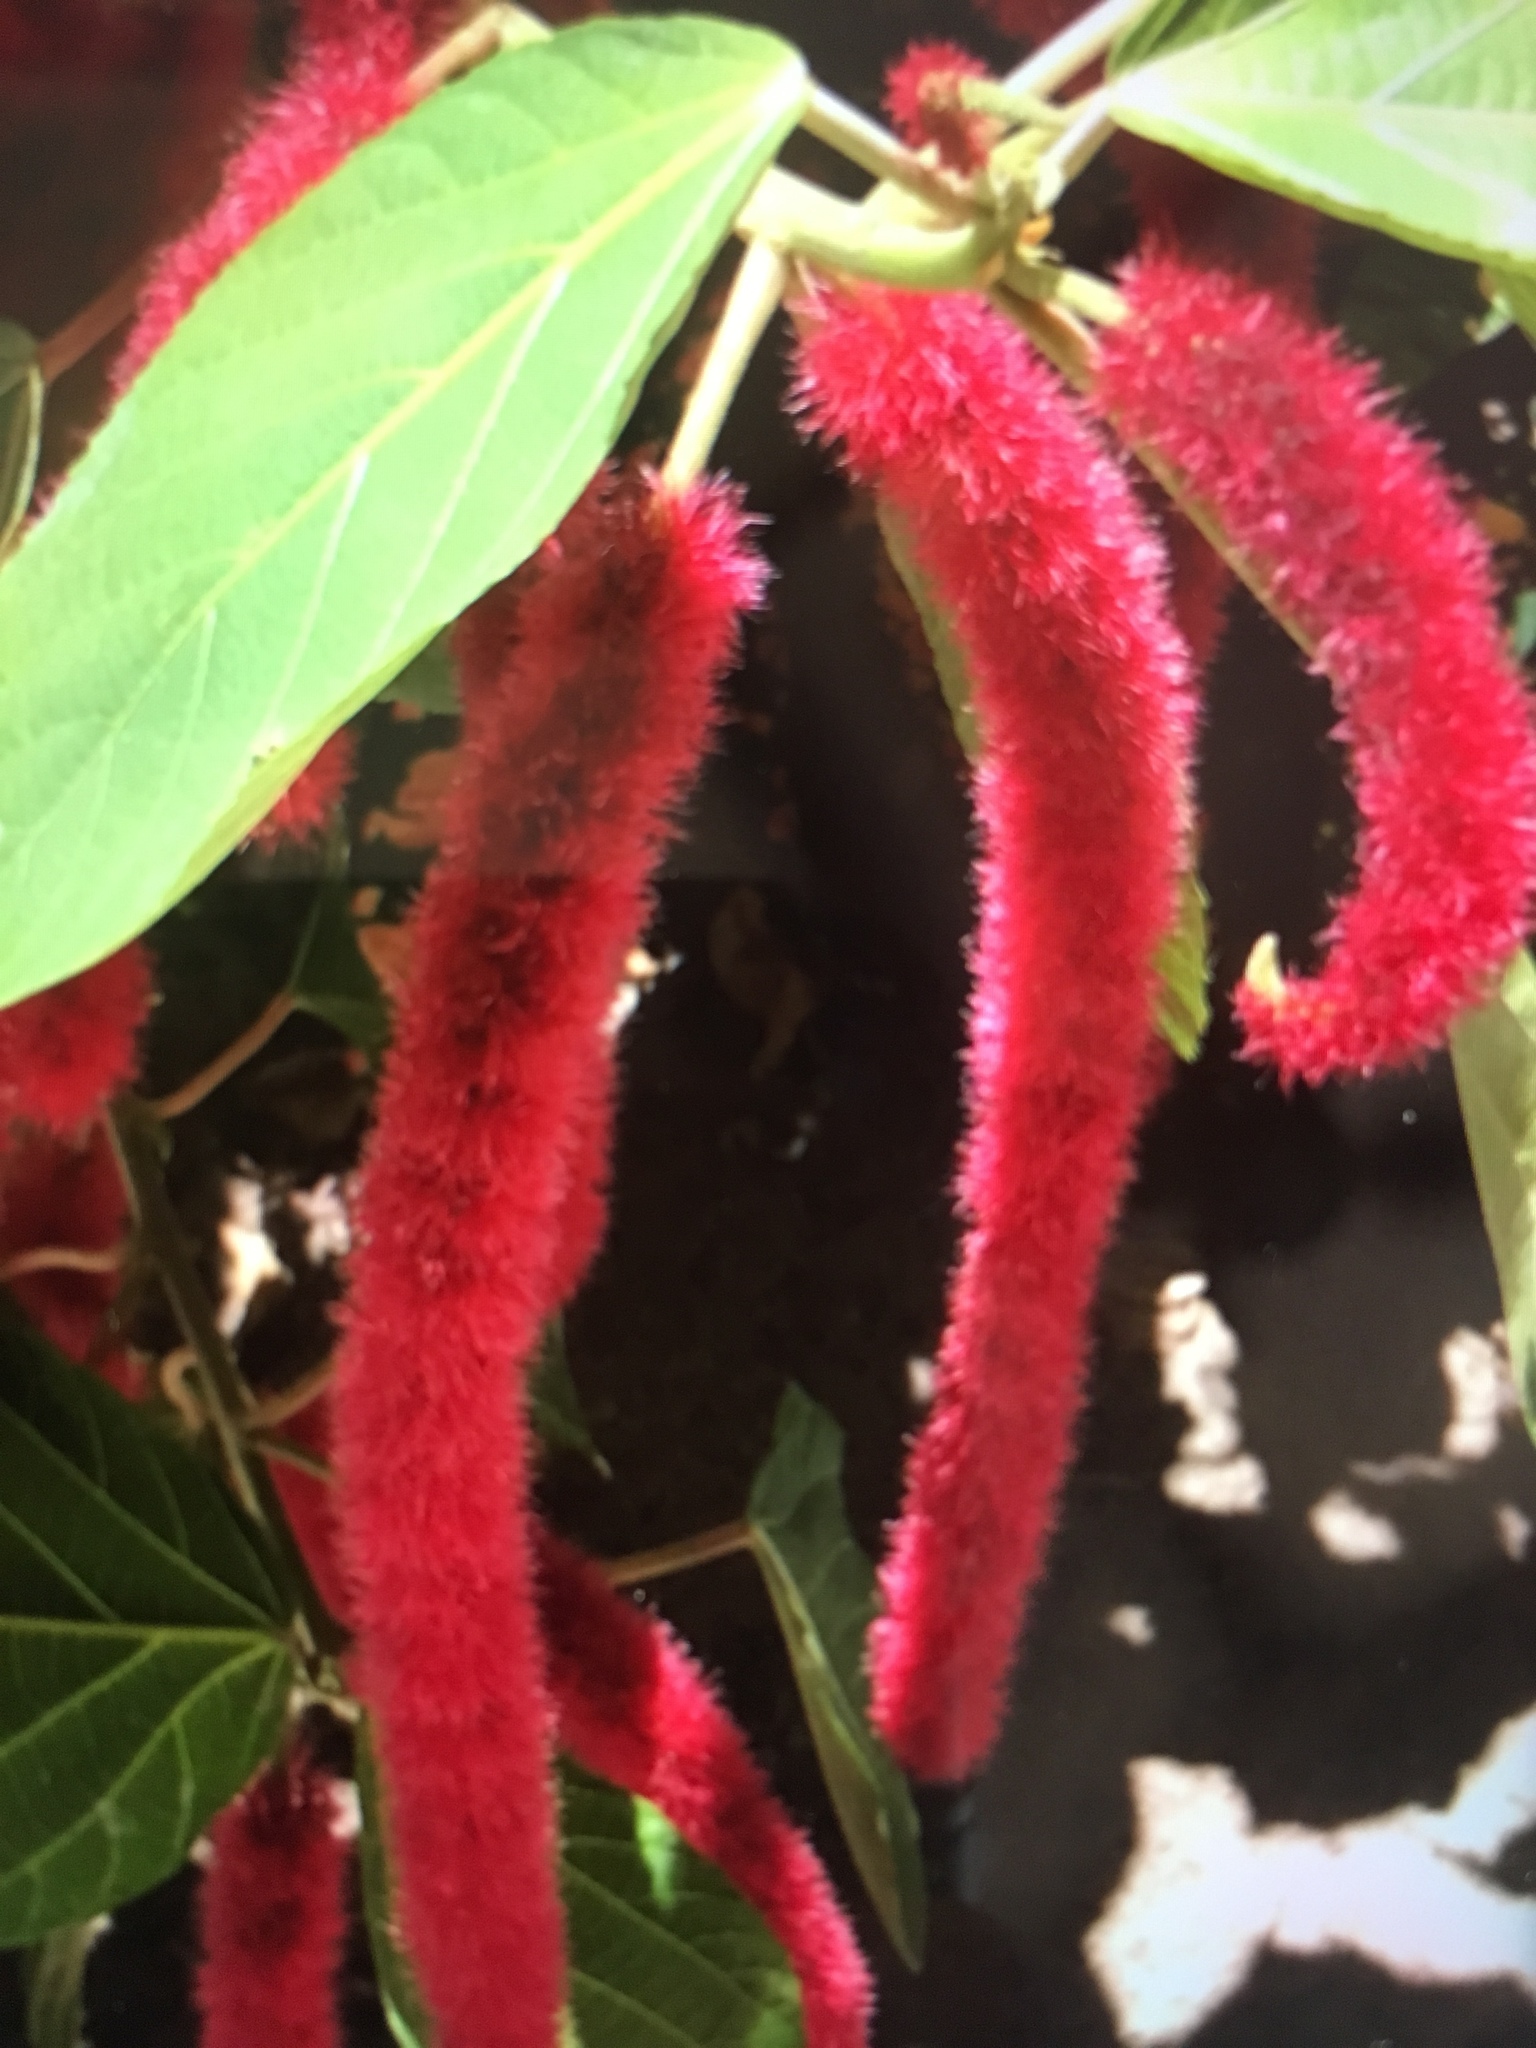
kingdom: Plantae
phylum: Tracheophyta
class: Magnoliopsida
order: Malpighiales
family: Euphorbiaceae
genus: Acalypha
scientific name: Acalypha hispida
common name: Chenilleplant
